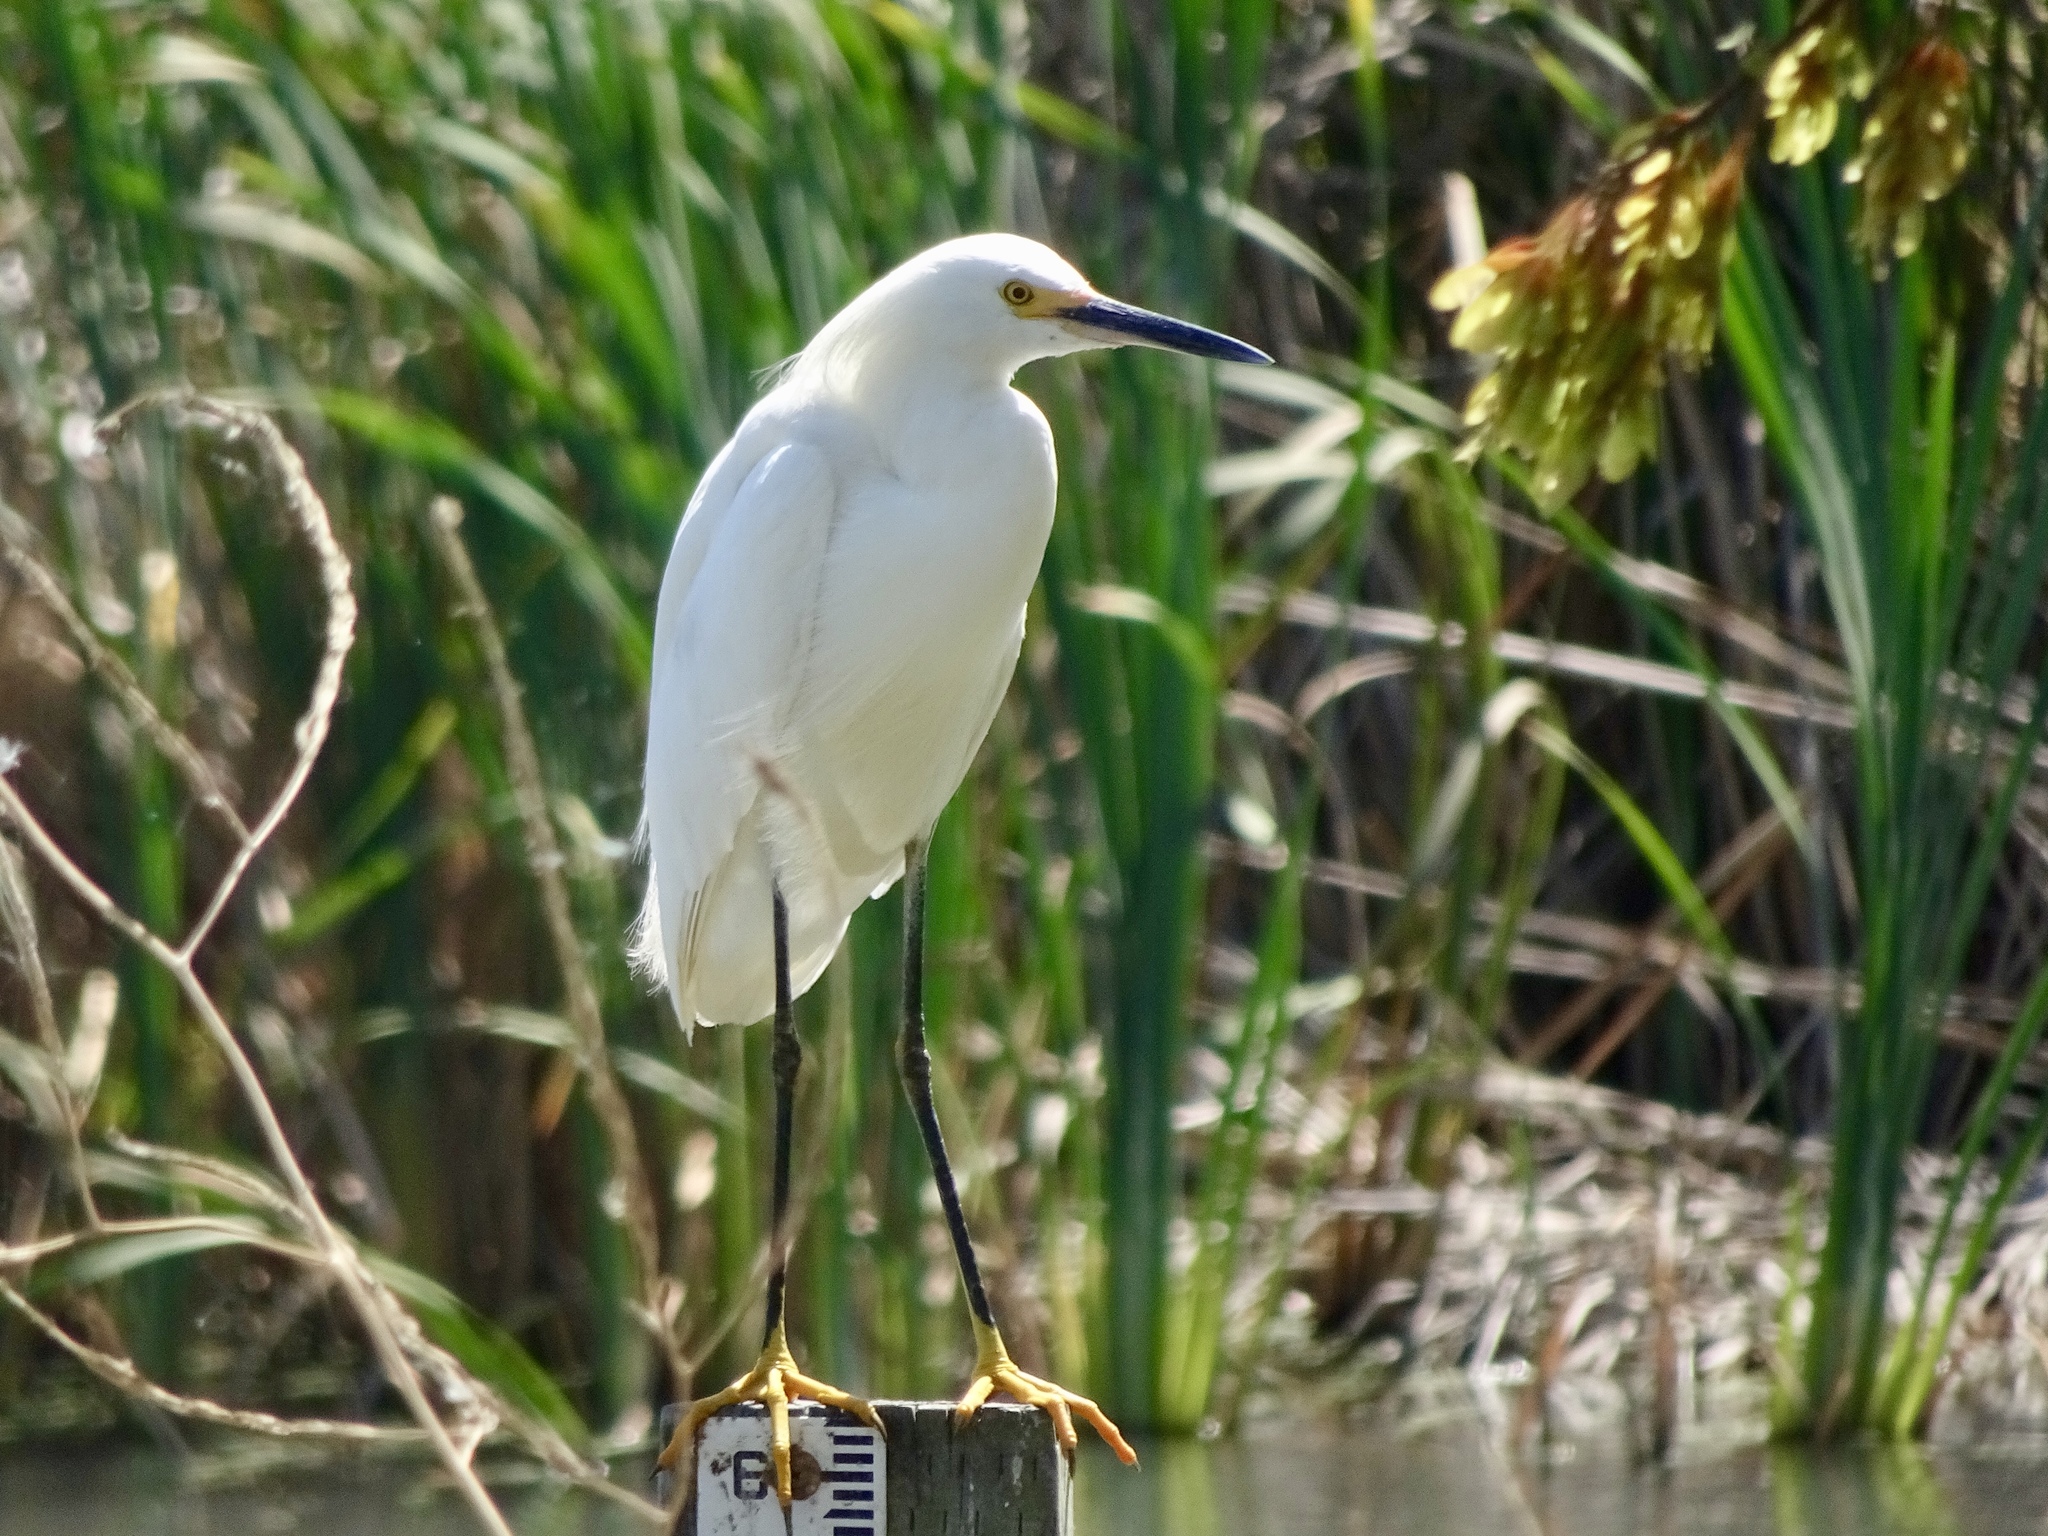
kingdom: Animalia
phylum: Chordata
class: Aves
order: Pelecaniformes
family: Ardeidae
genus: Egretta
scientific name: Egretta thula
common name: Snowy egret
